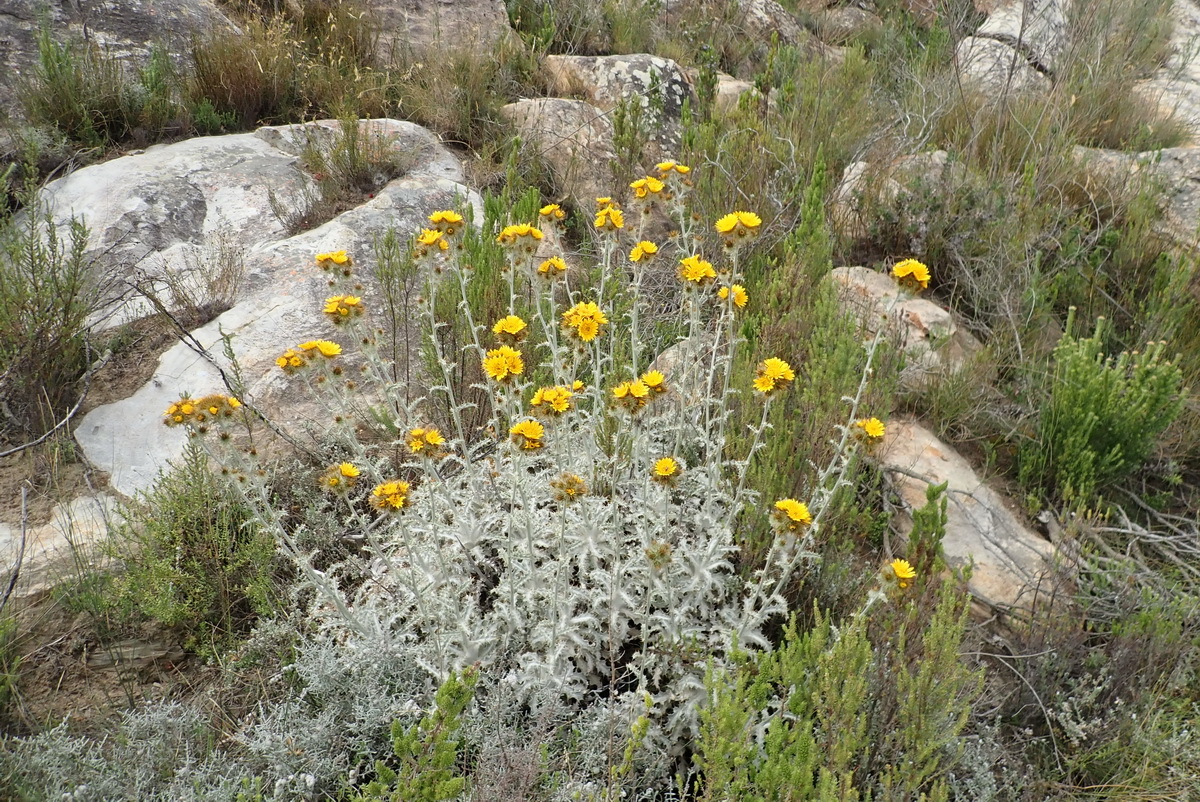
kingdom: Plantae
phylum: Tracheophyta
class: Magnoliopsida
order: Asterales
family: Asteraceae
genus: Berkheya
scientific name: Berkheya francisci
